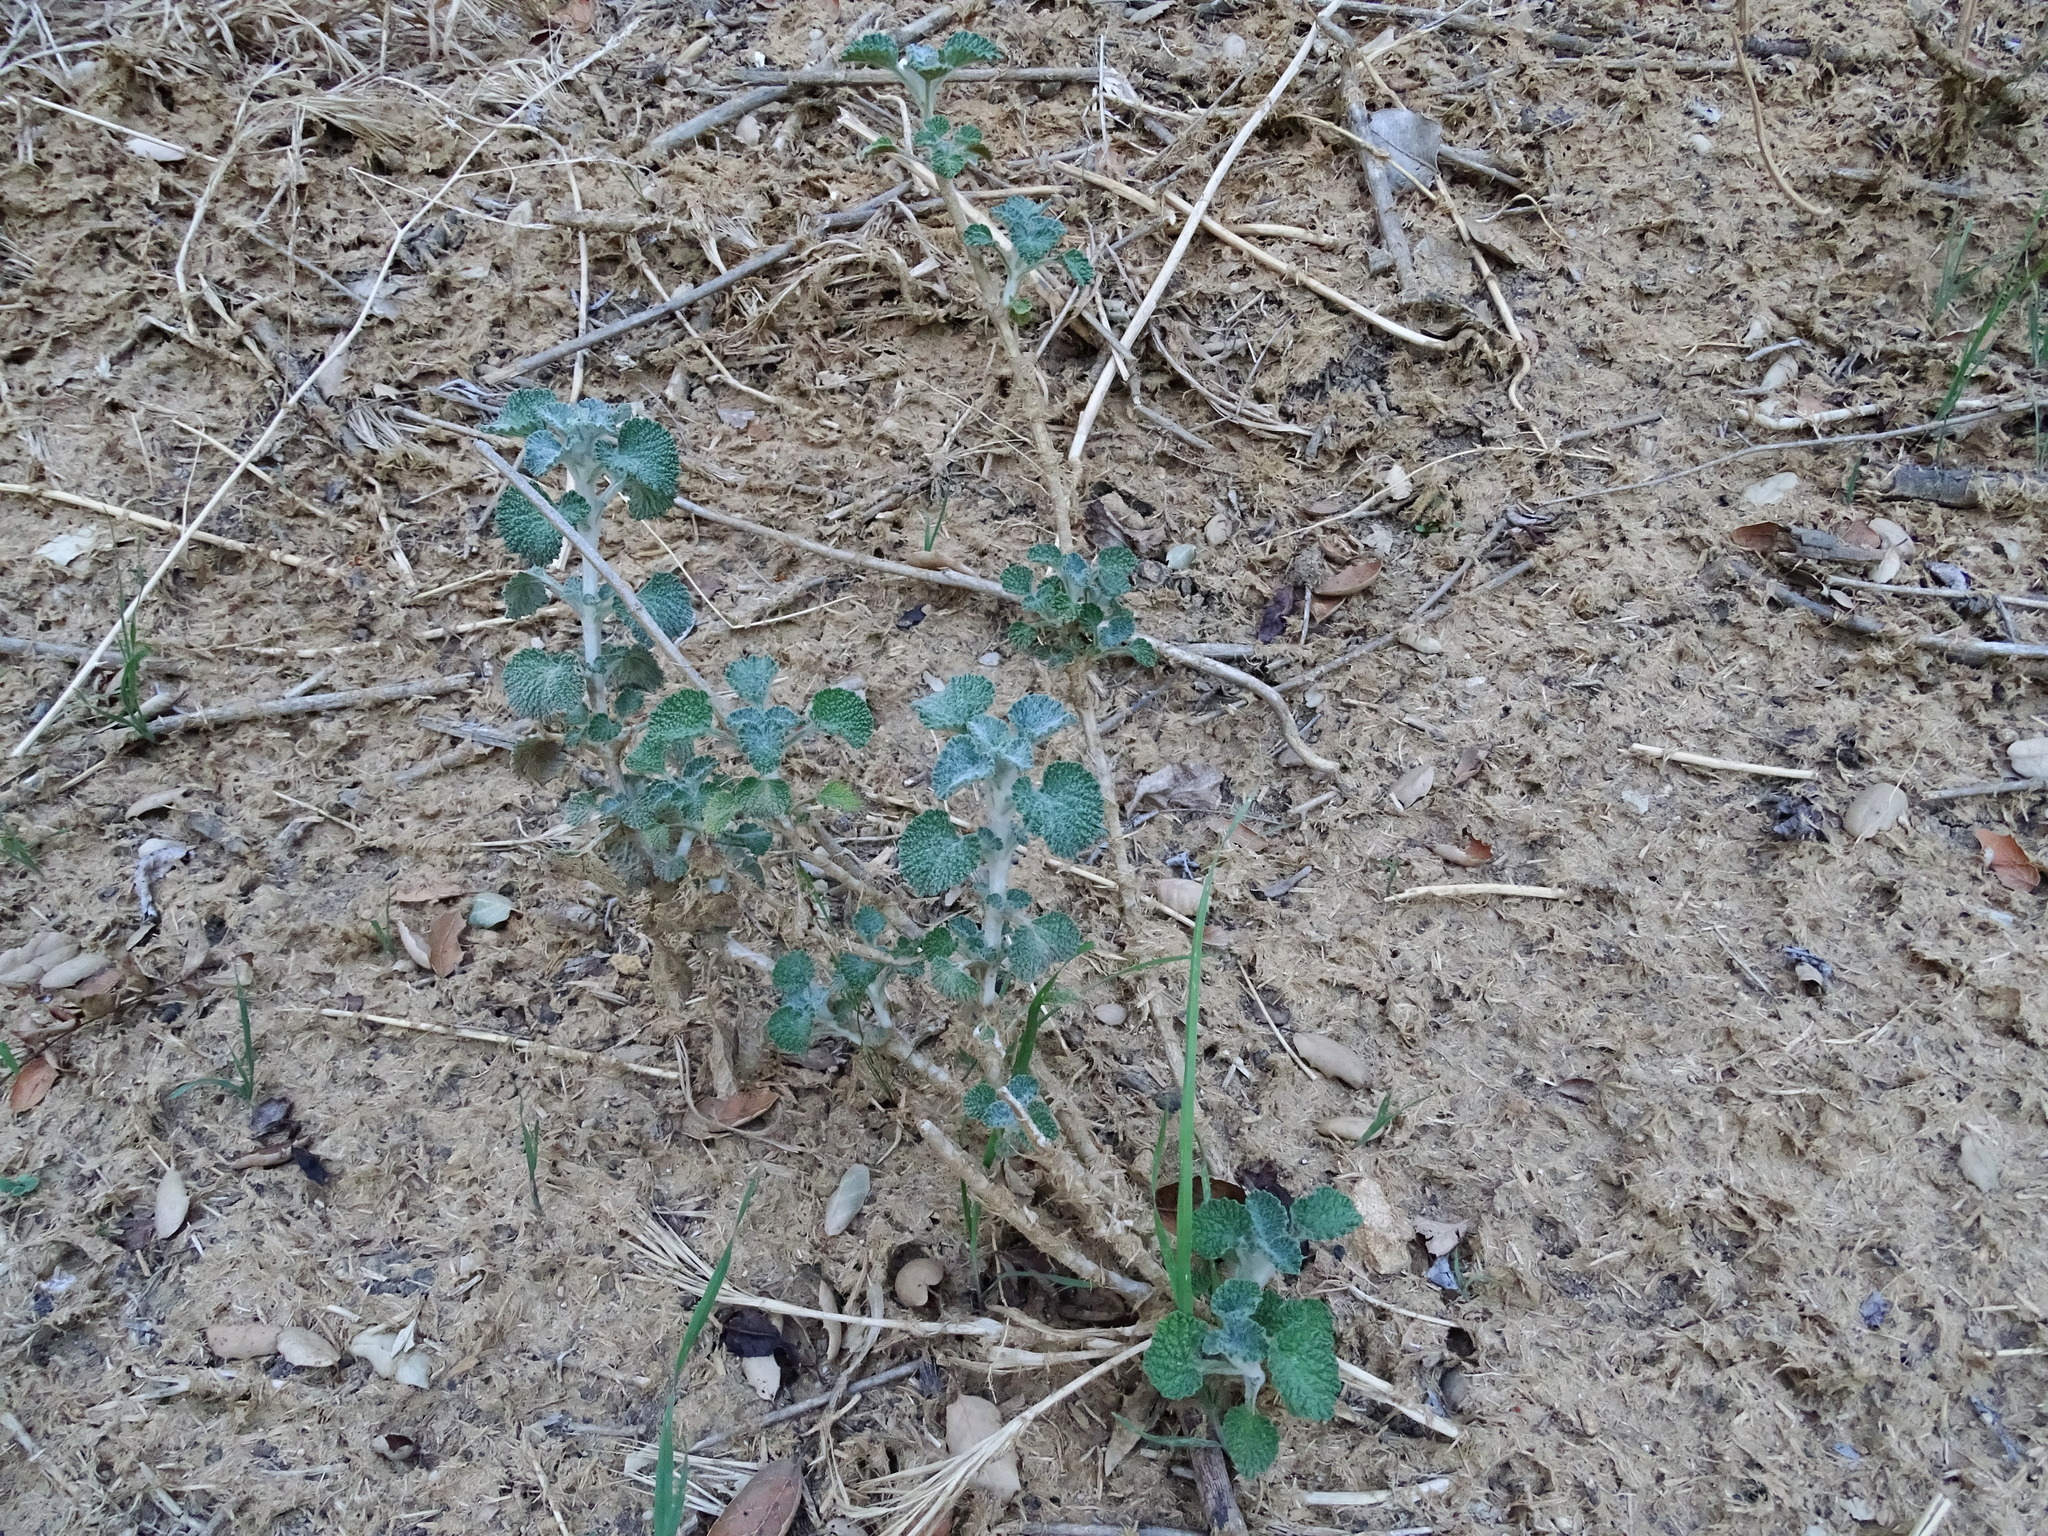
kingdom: Plantae
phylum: Tracheophyta
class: Magnoliopsida
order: Lamiales
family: Lamiaceae
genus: Marrubium
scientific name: Marrubium vulgare
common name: Horehound
